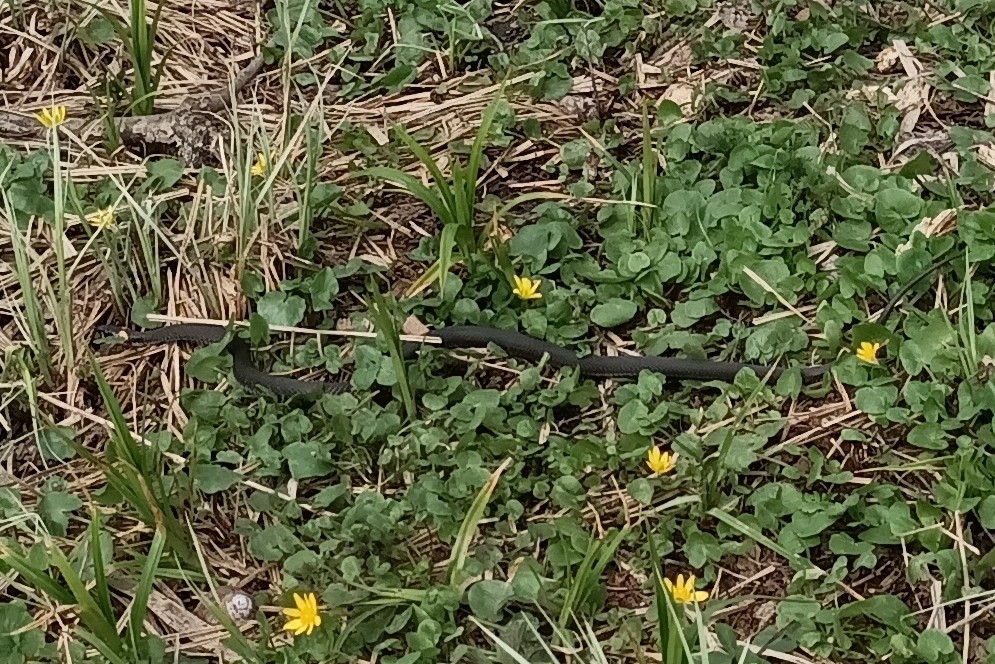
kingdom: Animalia
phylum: Chordata
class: Squamata
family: Colubridae
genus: Natrix
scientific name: Natrix natrix
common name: Grass snake
